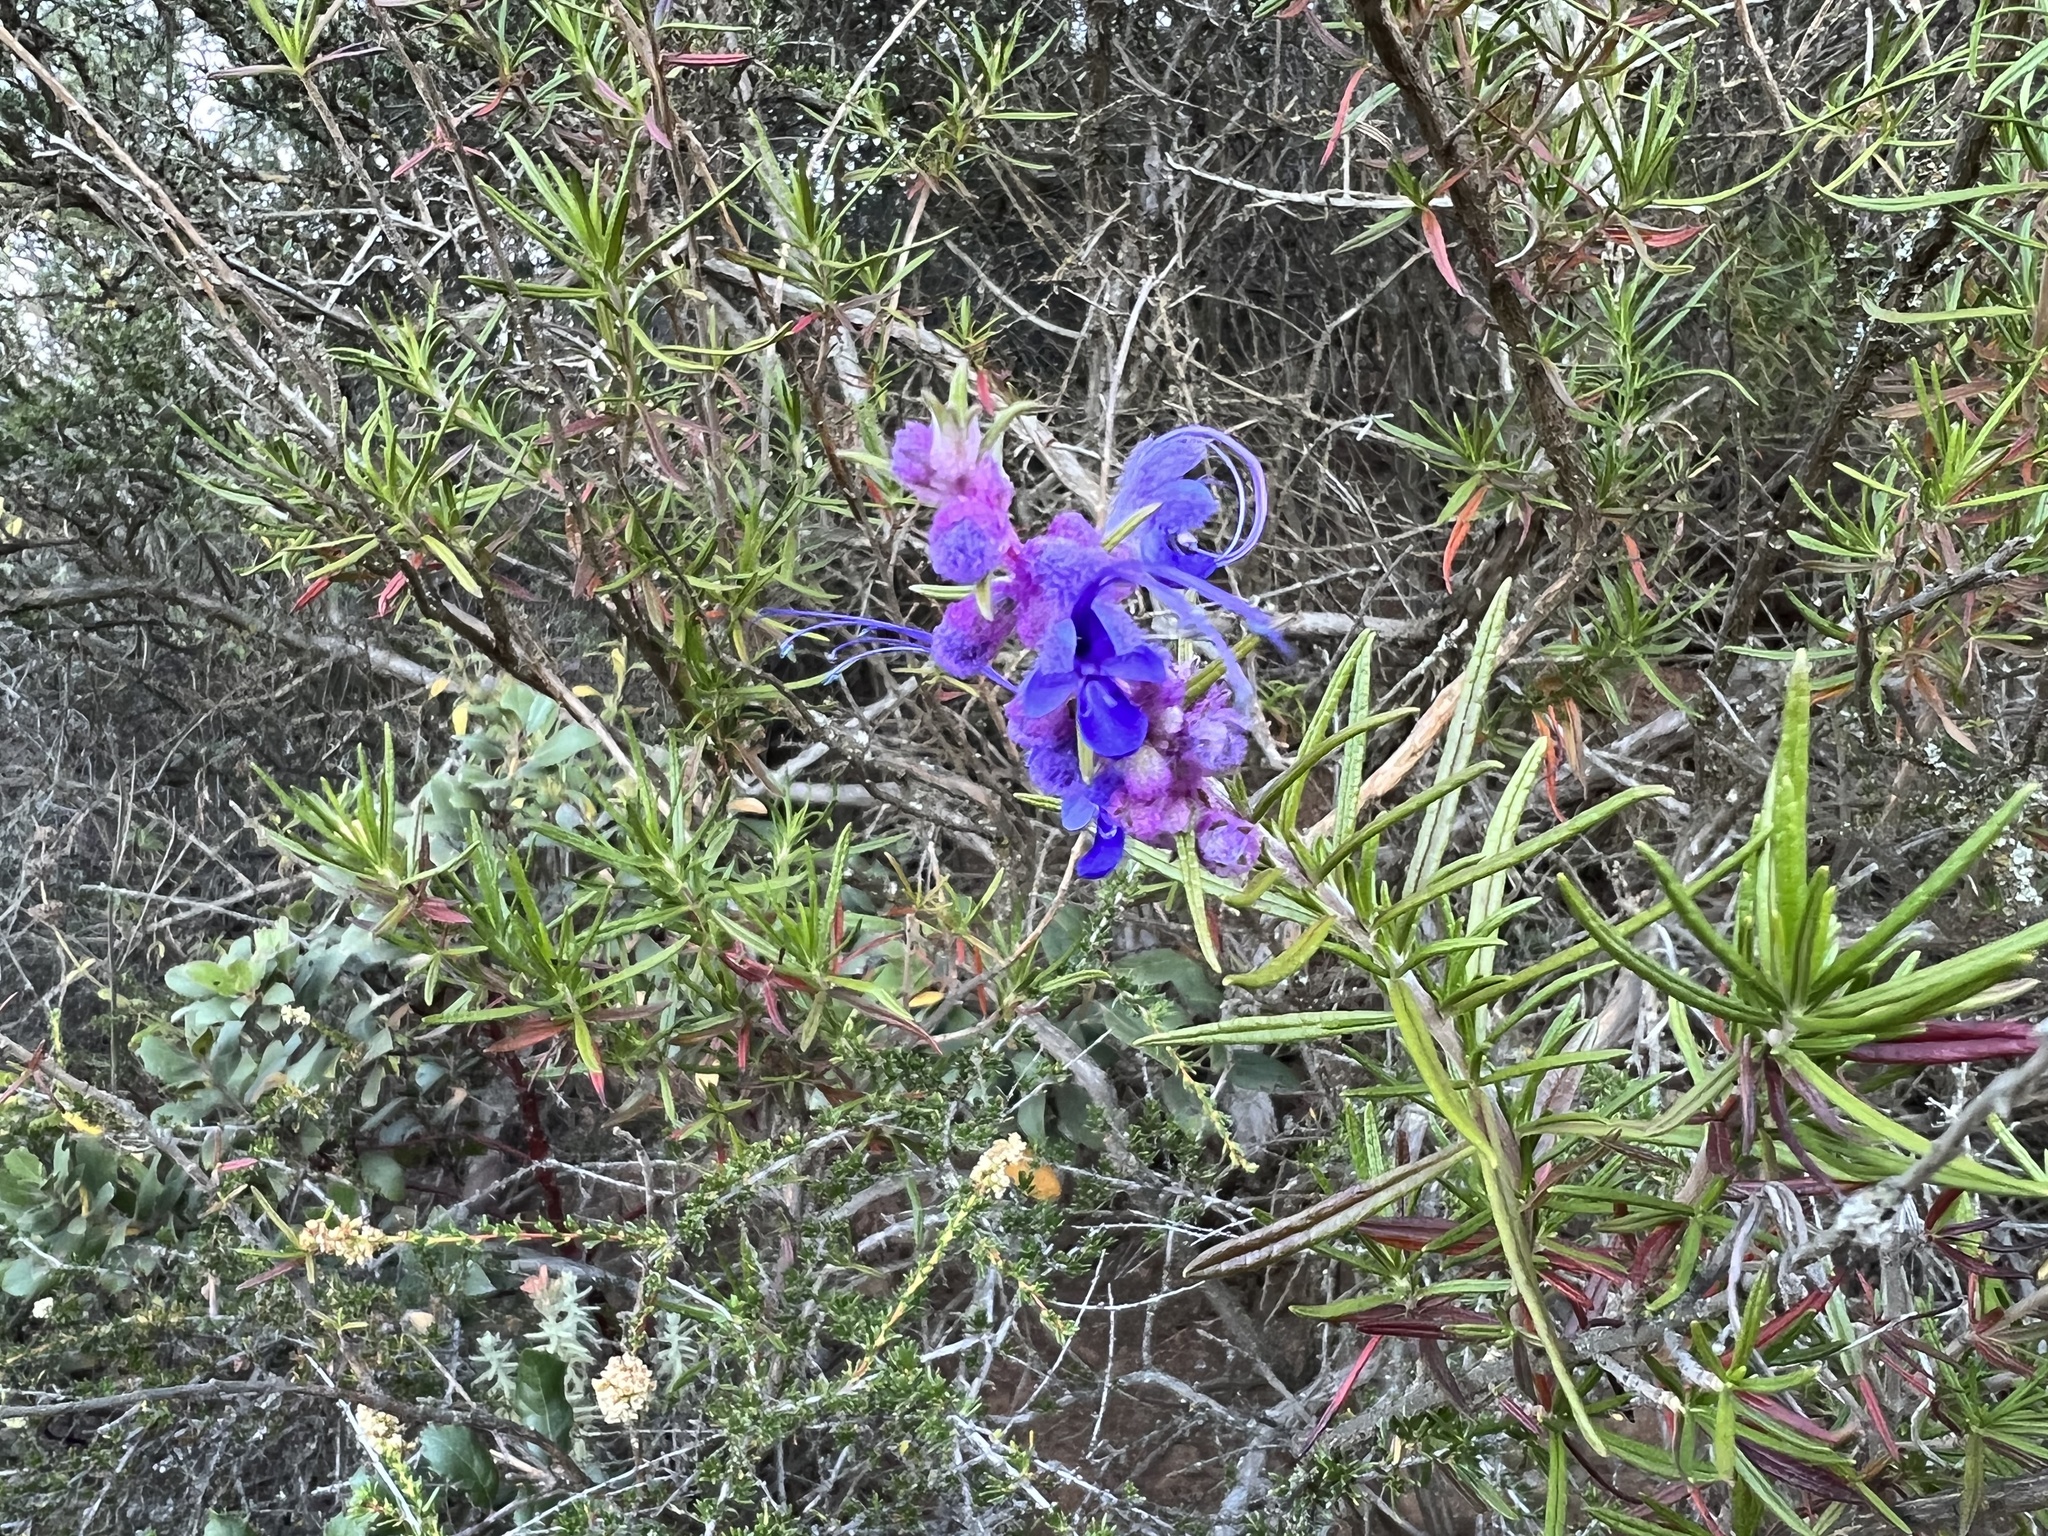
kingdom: Plantae
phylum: Tracheophyta
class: Magnoliopsida
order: Lamiales
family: Lamiaceae
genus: Trichostema
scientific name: Trichostema lanatum
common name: Woolly bluecurls
